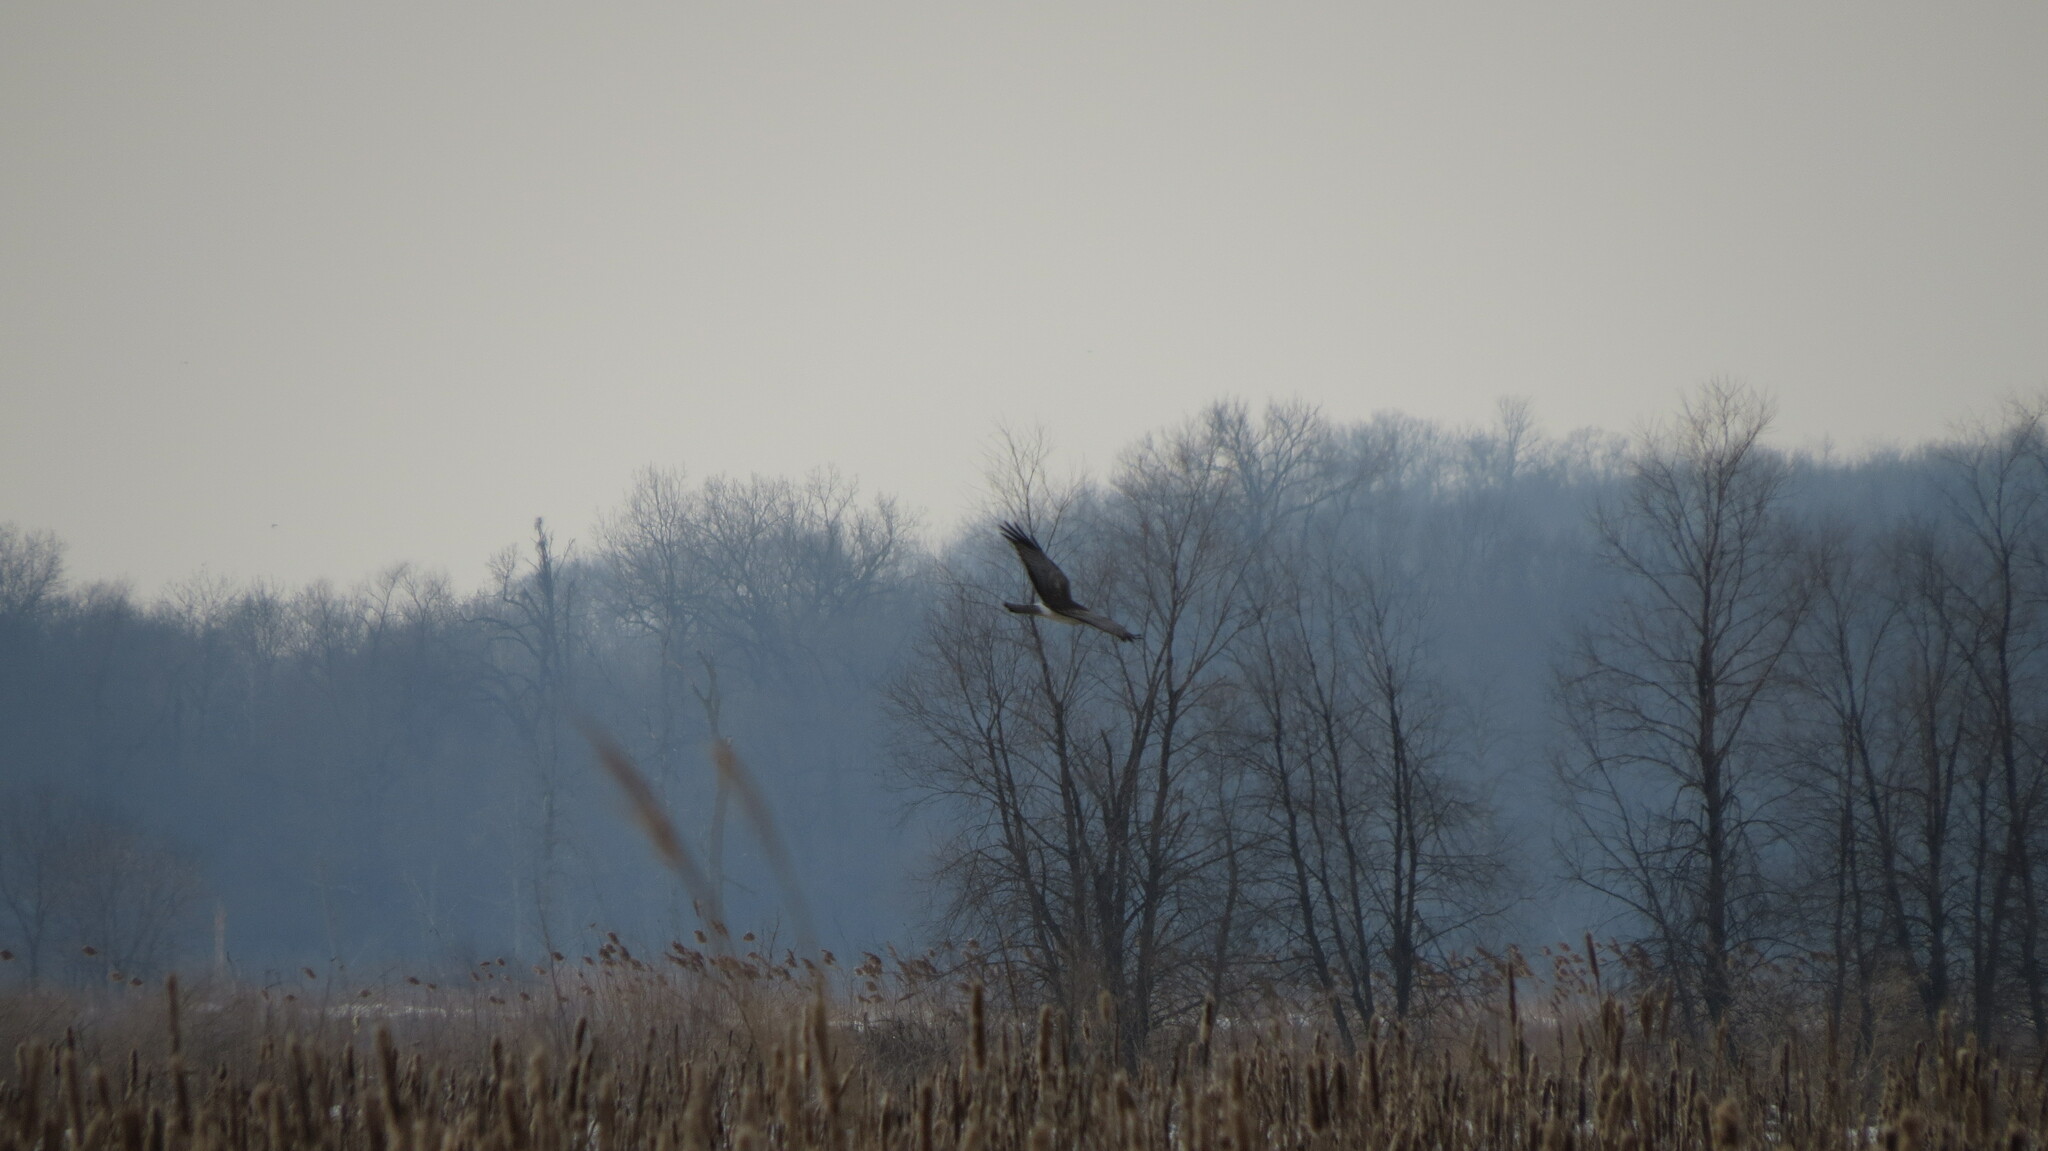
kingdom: Animalia
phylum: Chordata
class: Aves
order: Accipitriformes
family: Accipitridae
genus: Circus
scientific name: Circus cyaneus
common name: Hen harrier
